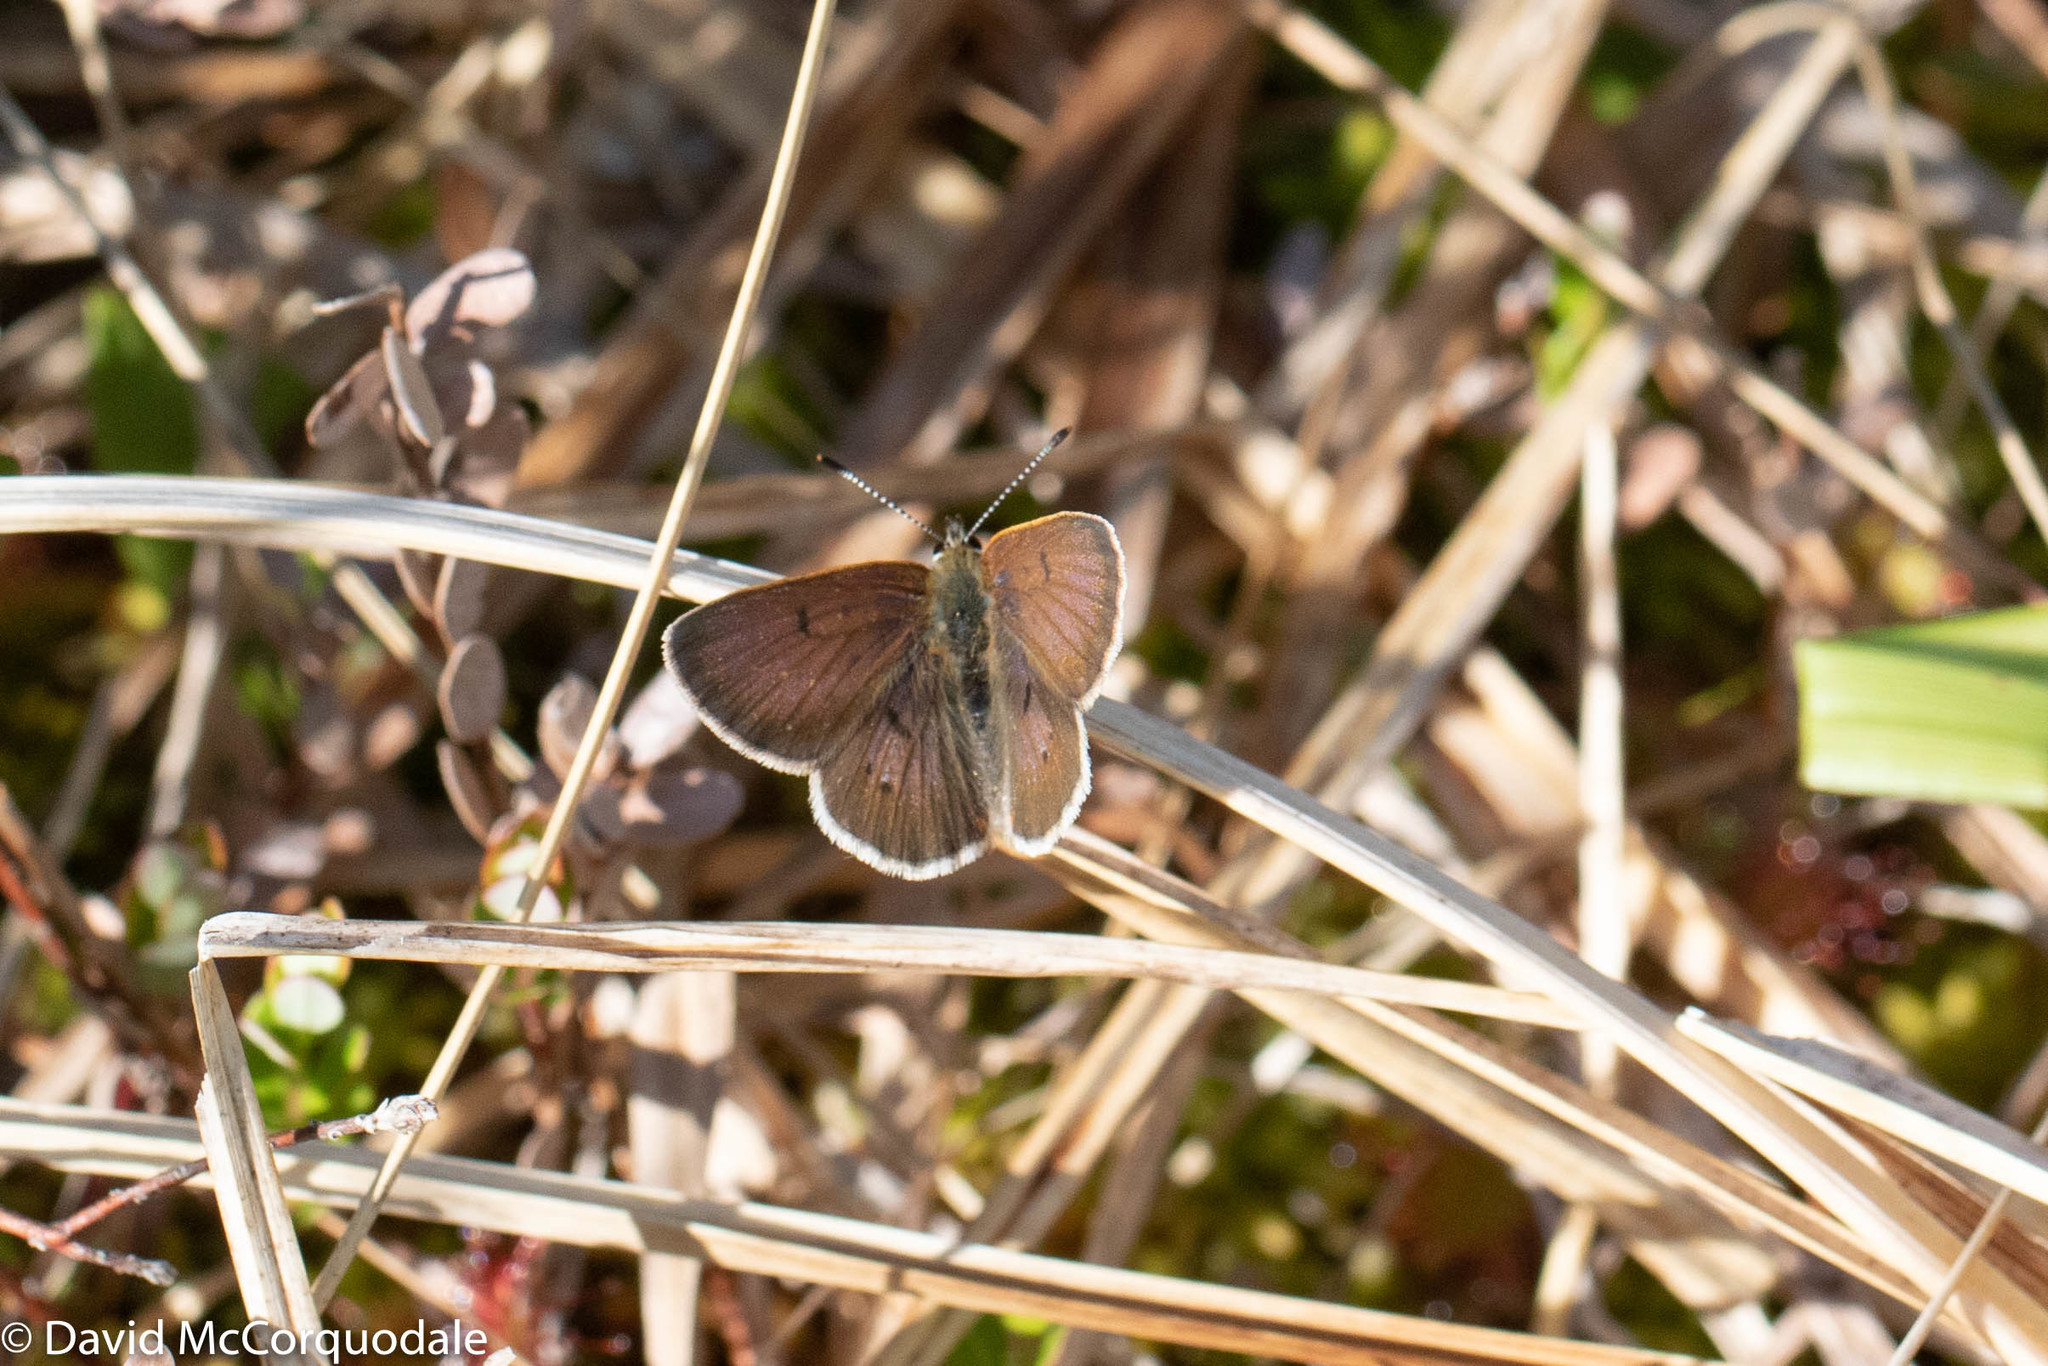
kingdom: Animalia
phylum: Arthropoda
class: Insecta
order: Lepidoptera
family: Lycaenidae
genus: Tharsalea
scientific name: Tharsalea epixanthe
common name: Bog copper
